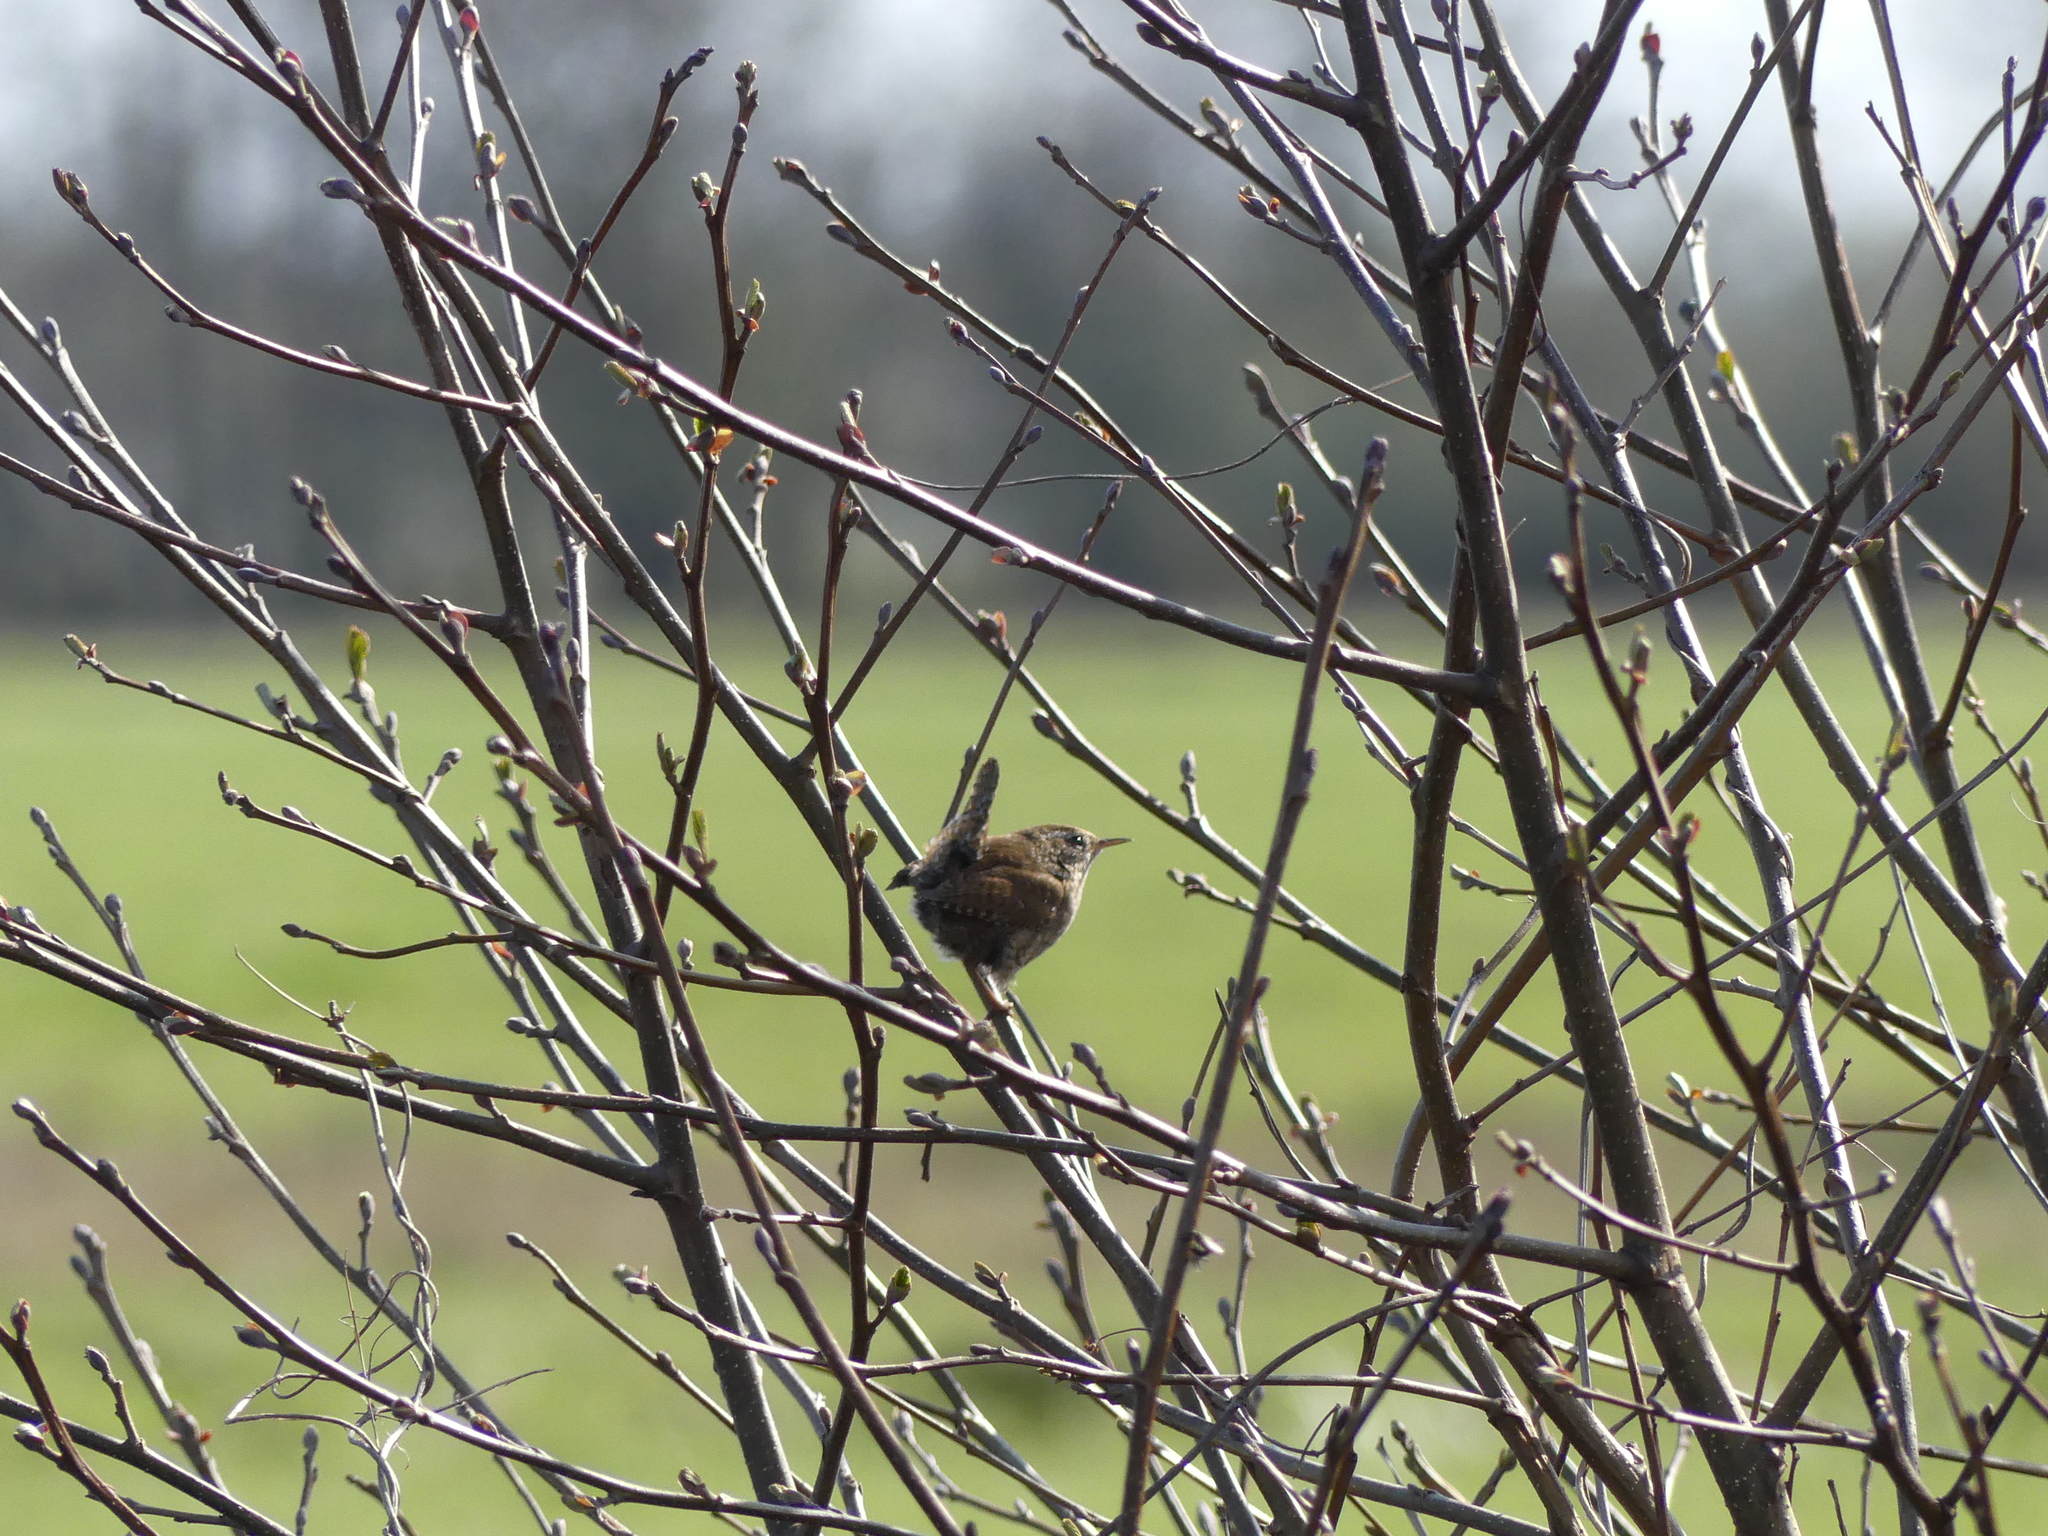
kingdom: Animalia
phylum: Chordata
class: Aves
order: Passeriformes
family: Troglodytidae
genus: Troglodytes
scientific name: Troglodytes troglodytes
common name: Eurasian wren
